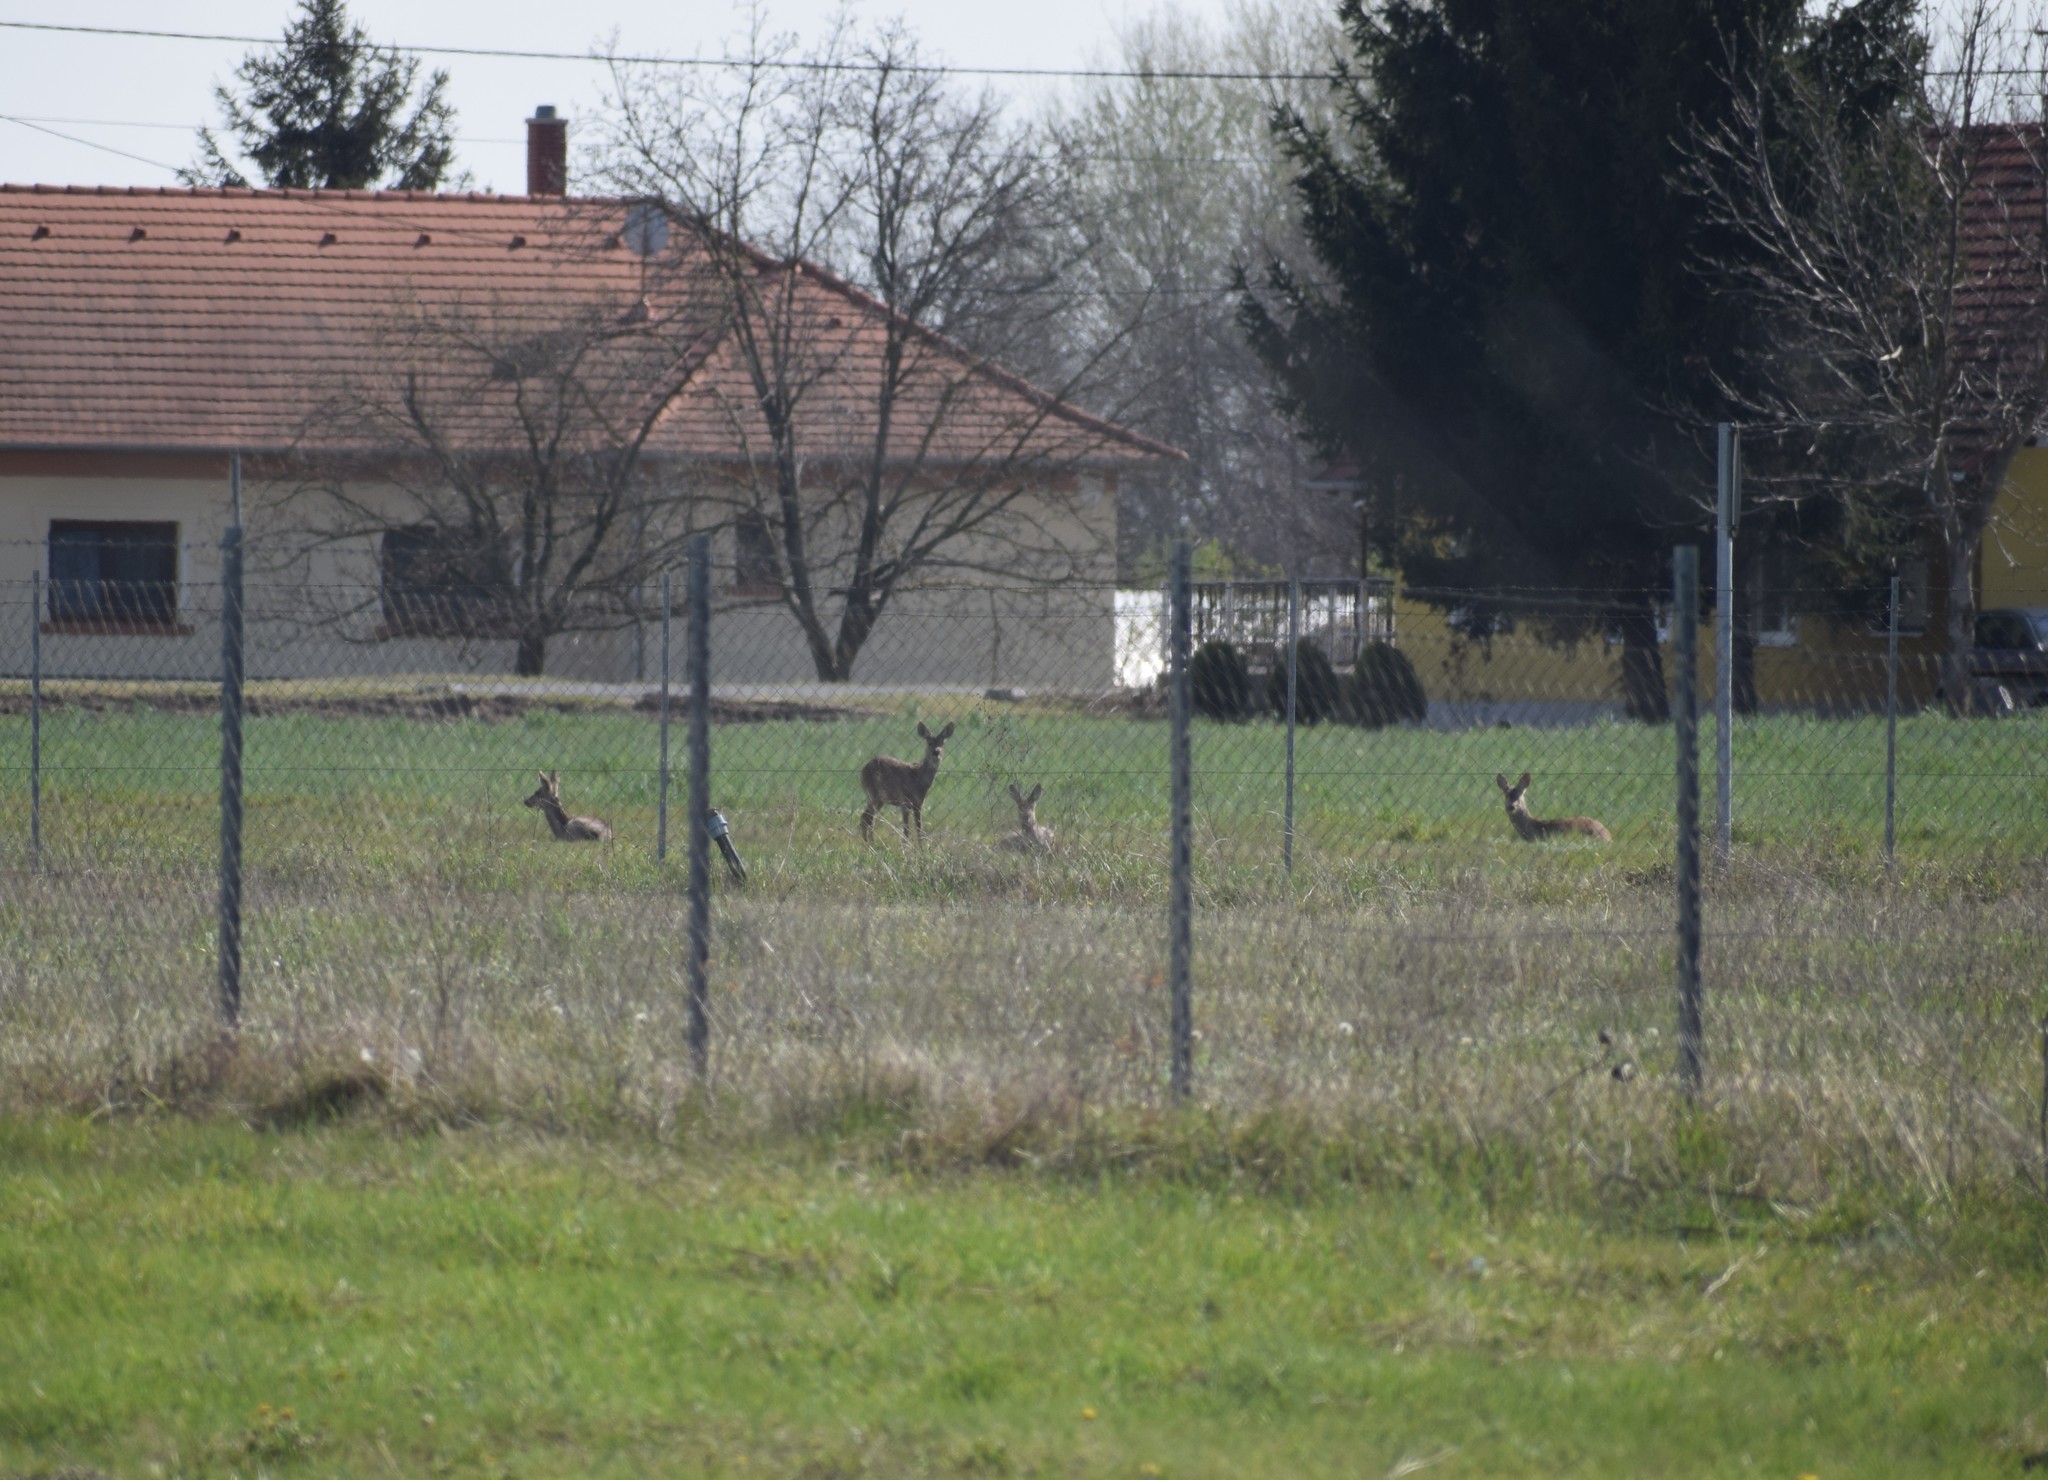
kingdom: Animalia
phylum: Chordata
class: Mammalia
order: Artiodactyla
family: Cervidae
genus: Capreolus
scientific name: Capreolus capreolus
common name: Western roe deer
